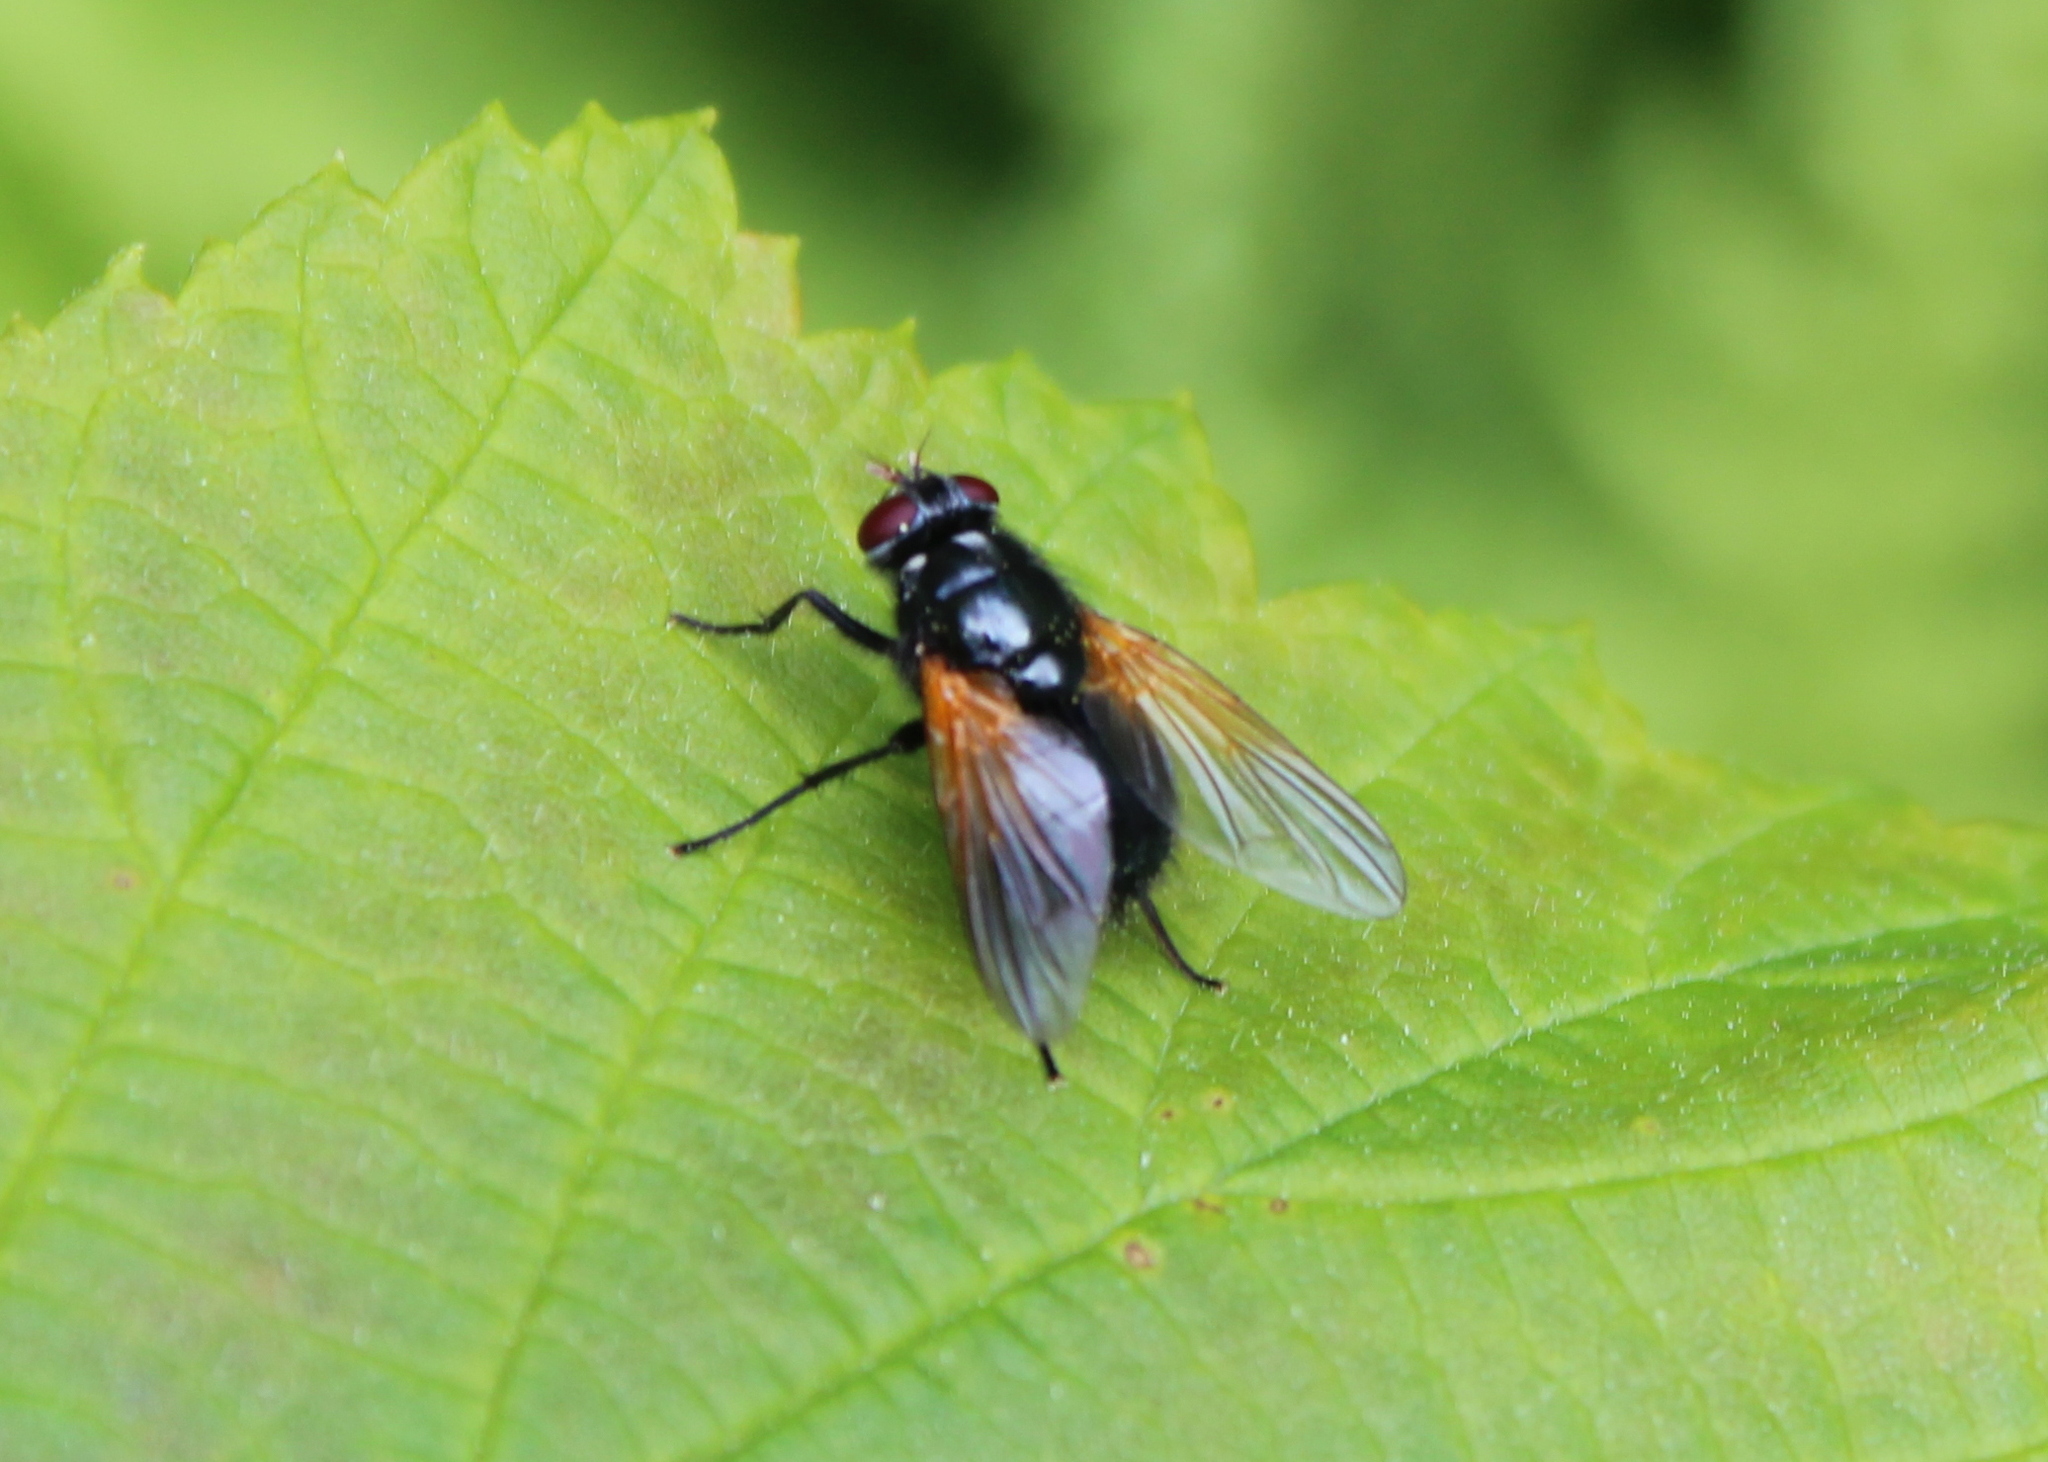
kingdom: Animalia
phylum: Arthropoda
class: Insecta
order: Diptera
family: Muscidae
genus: Mesembrina
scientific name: Mesembrina latreillii
